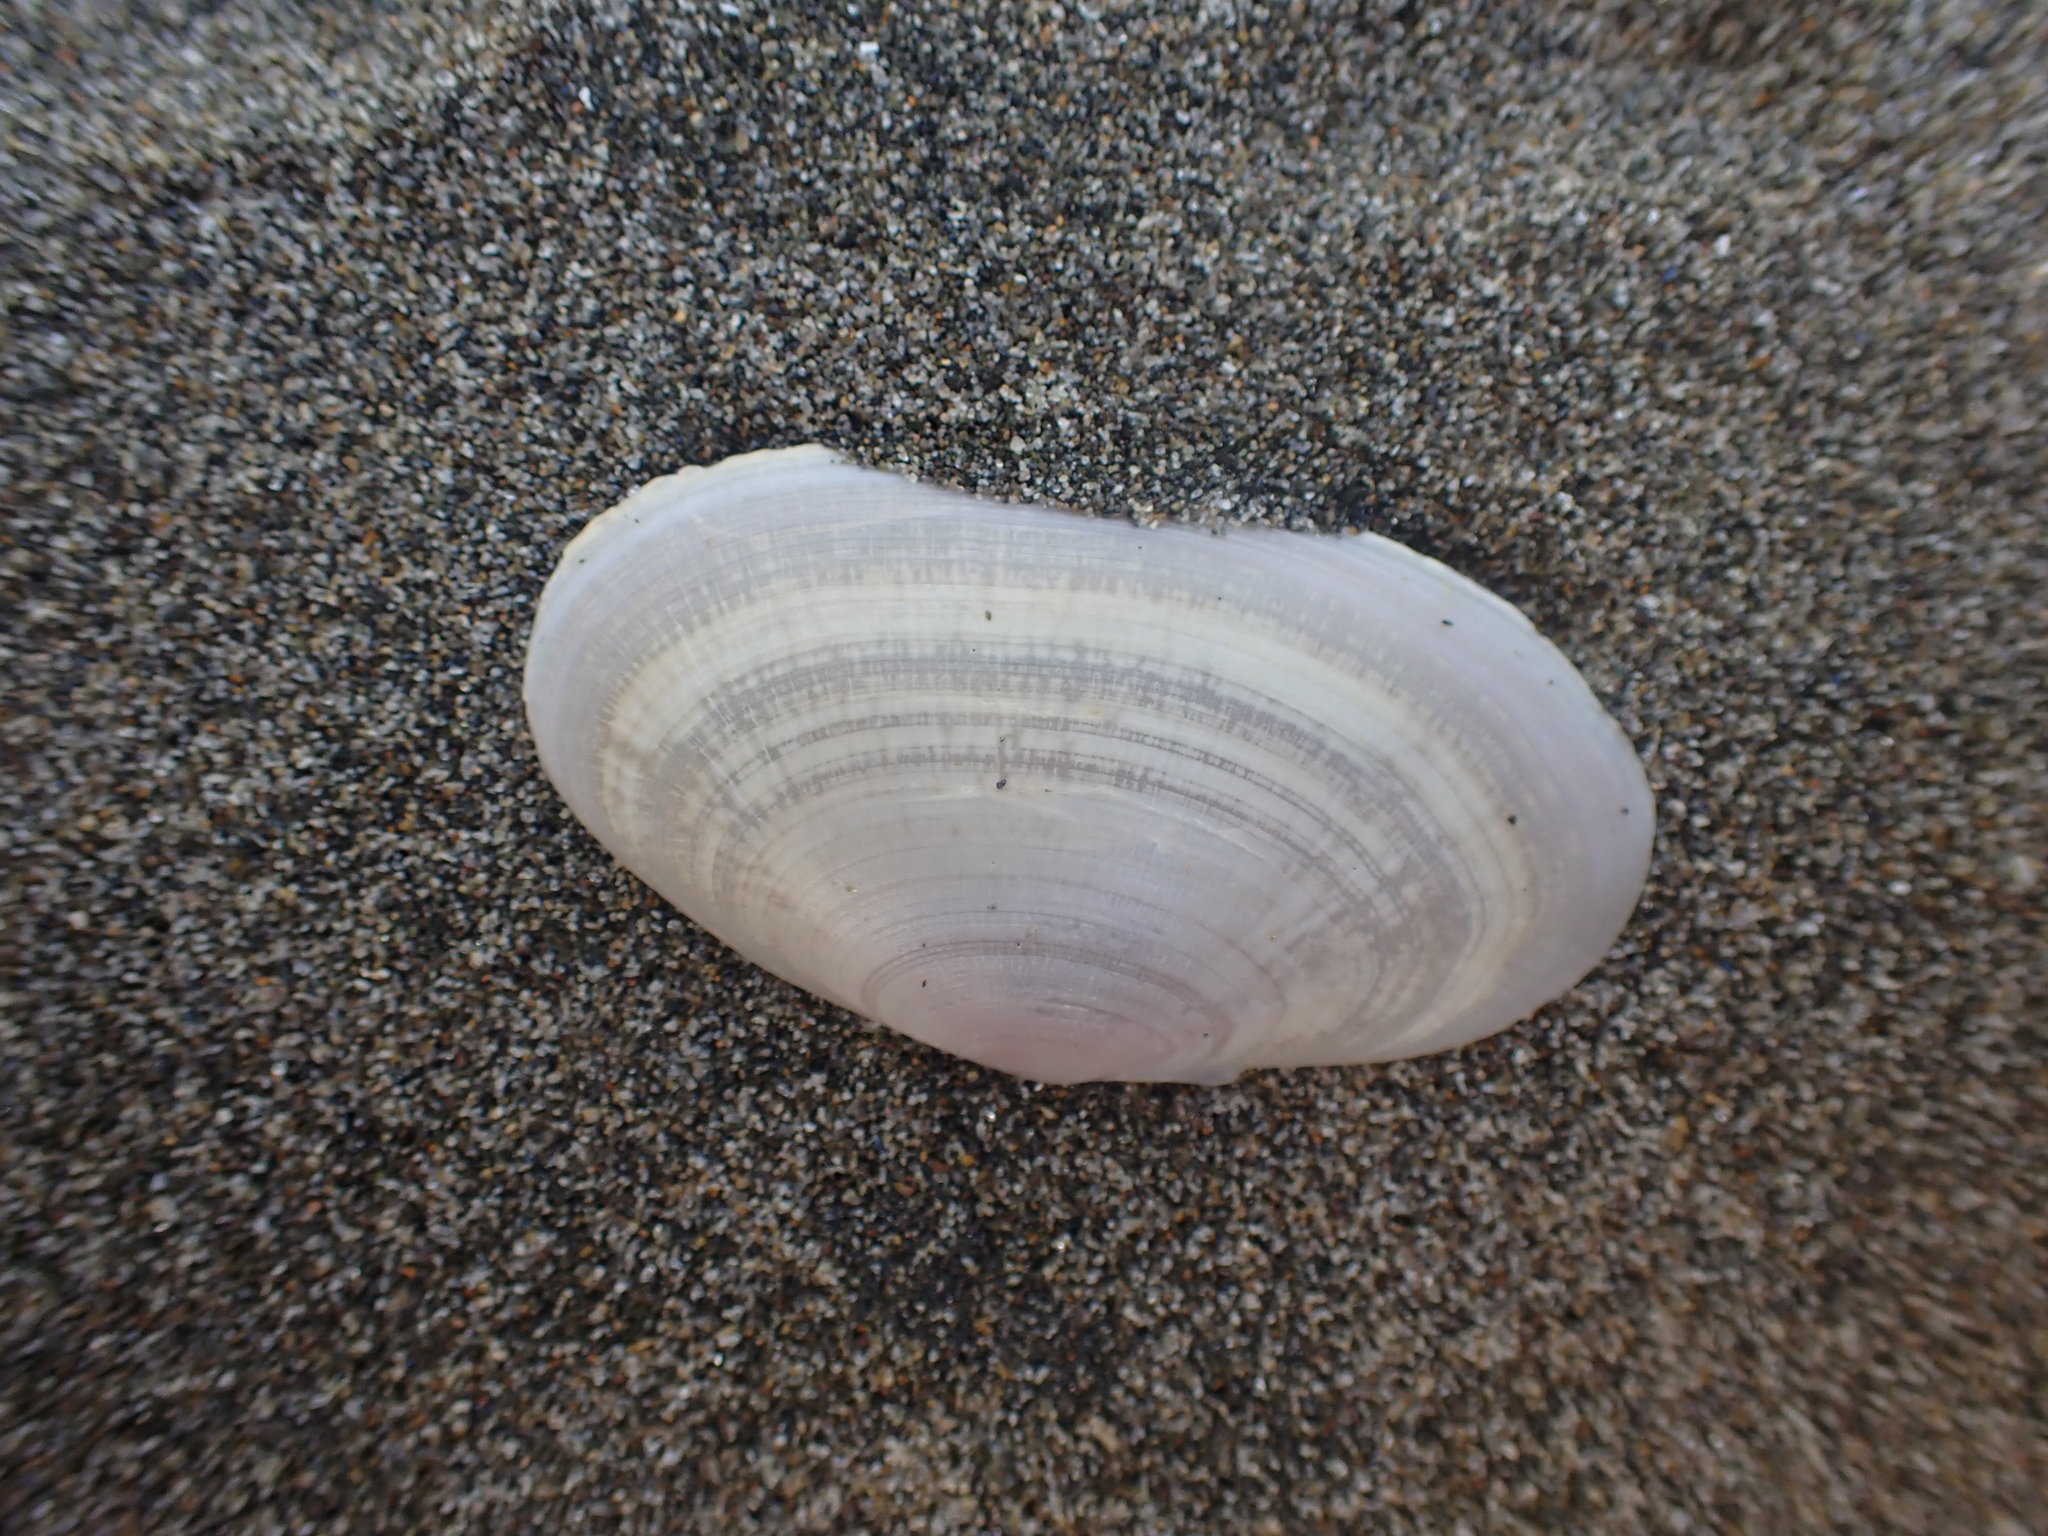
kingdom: Animalia
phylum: Mollusca
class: Bivalvia
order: Cardiida
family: Psammobiidae
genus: Gari
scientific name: Gari lineolata
